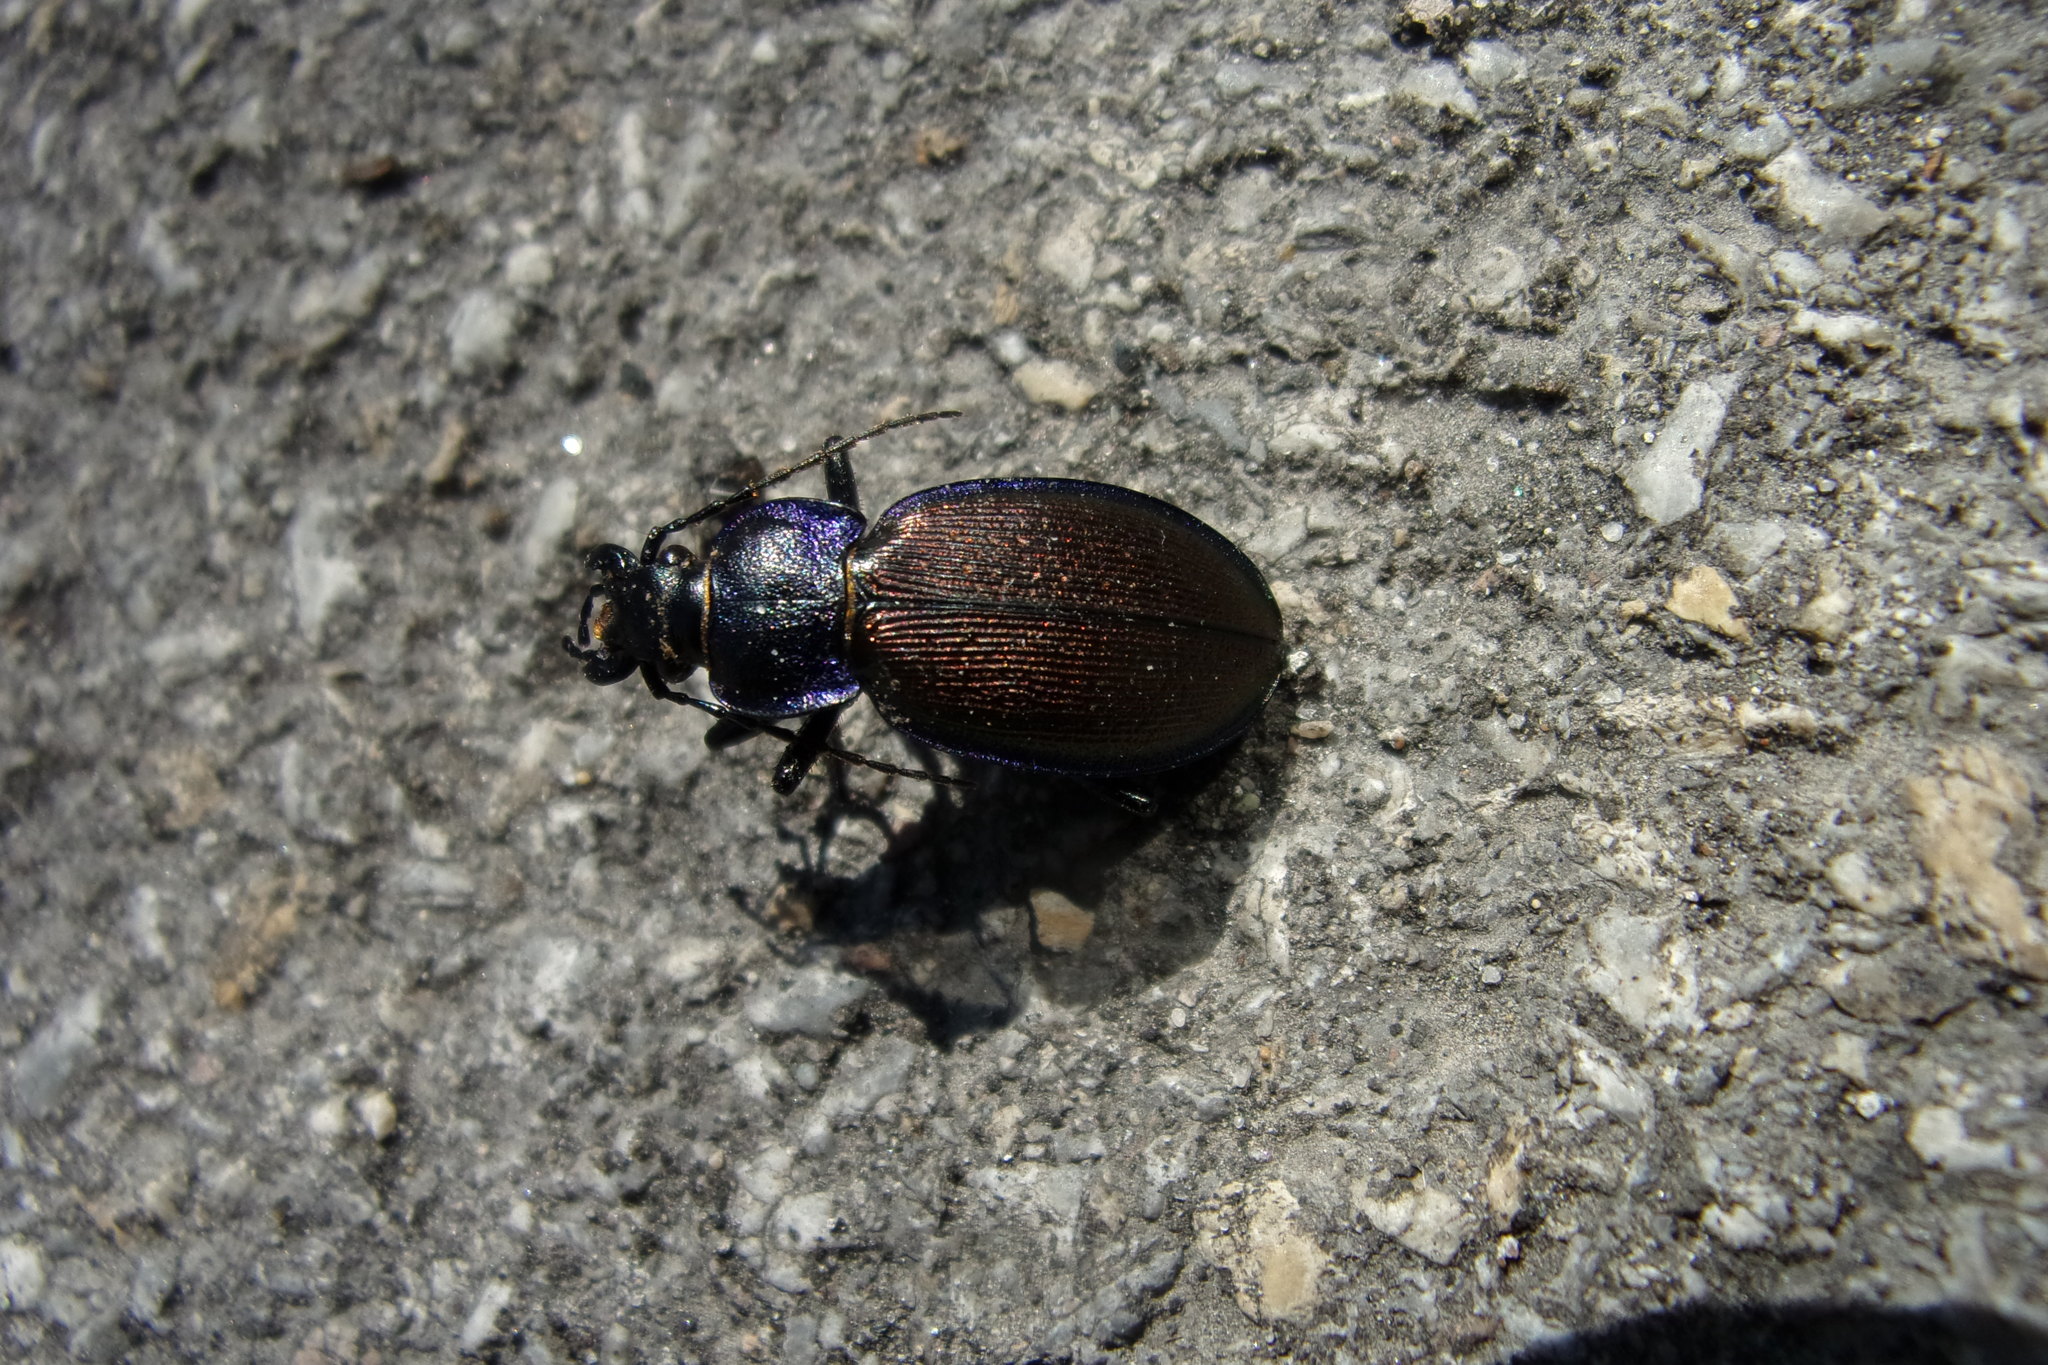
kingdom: Animalia
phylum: Arthropoda
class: Insecta
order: Coleoptera
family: Carabidae
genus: Carabus
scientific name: Carabus regalis
